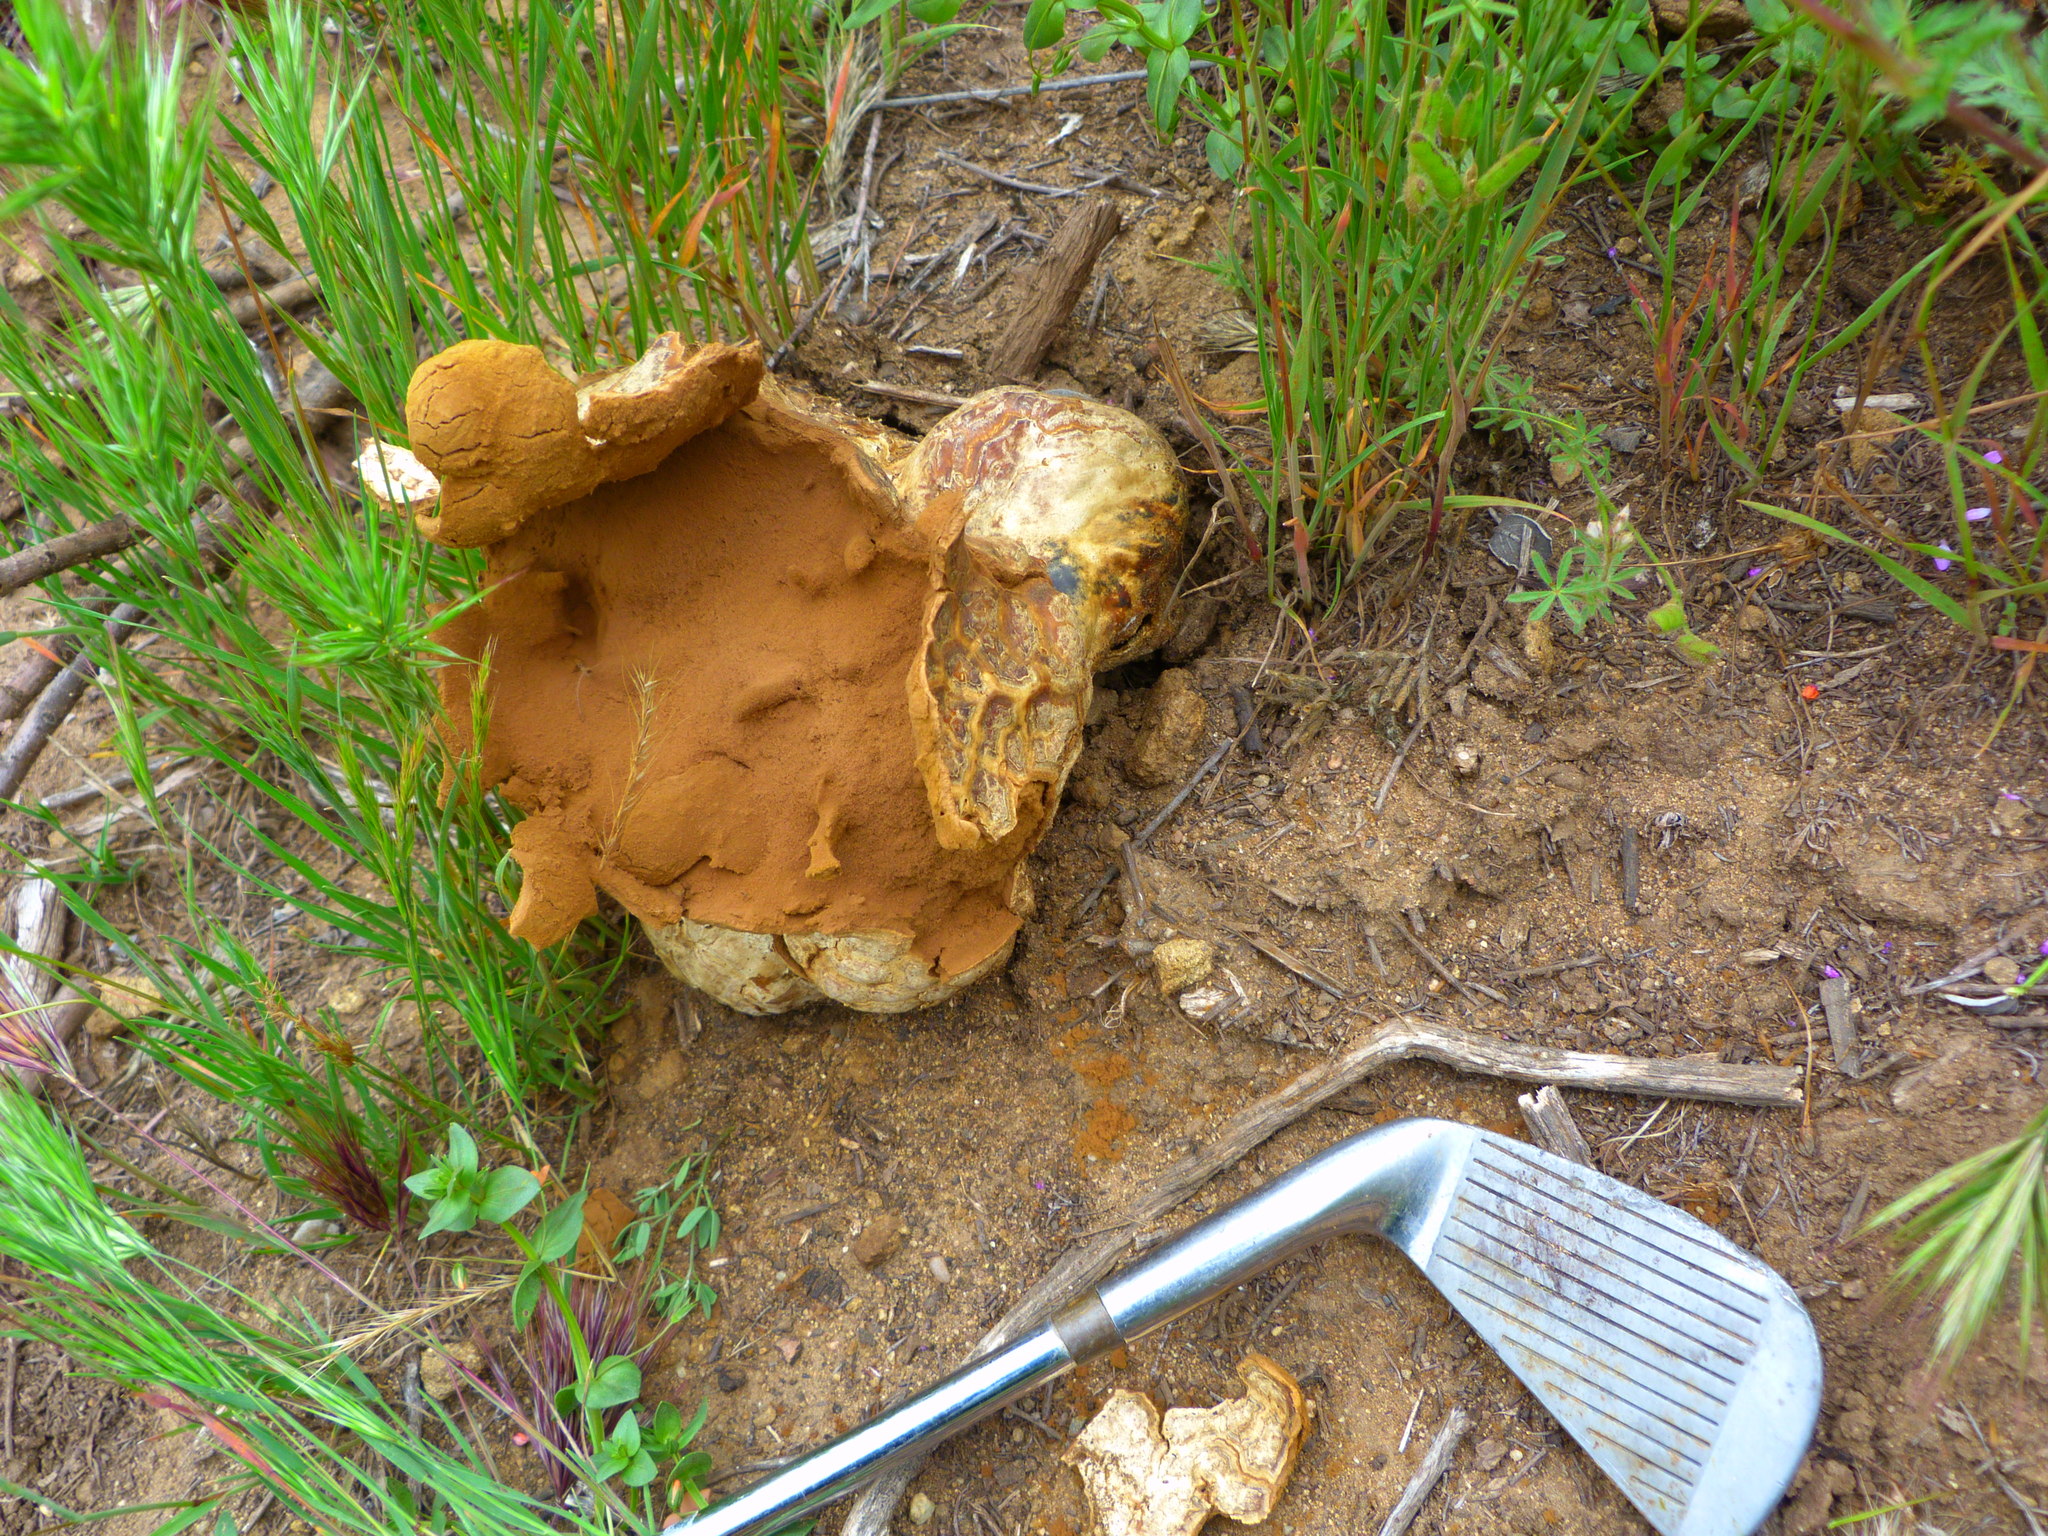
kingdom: Fungi
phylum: Basidiomycota
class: Agaricomycetes
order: Agaricales
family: Lycoperdaceae
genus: Calvatia
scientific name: Calvatia booniana
